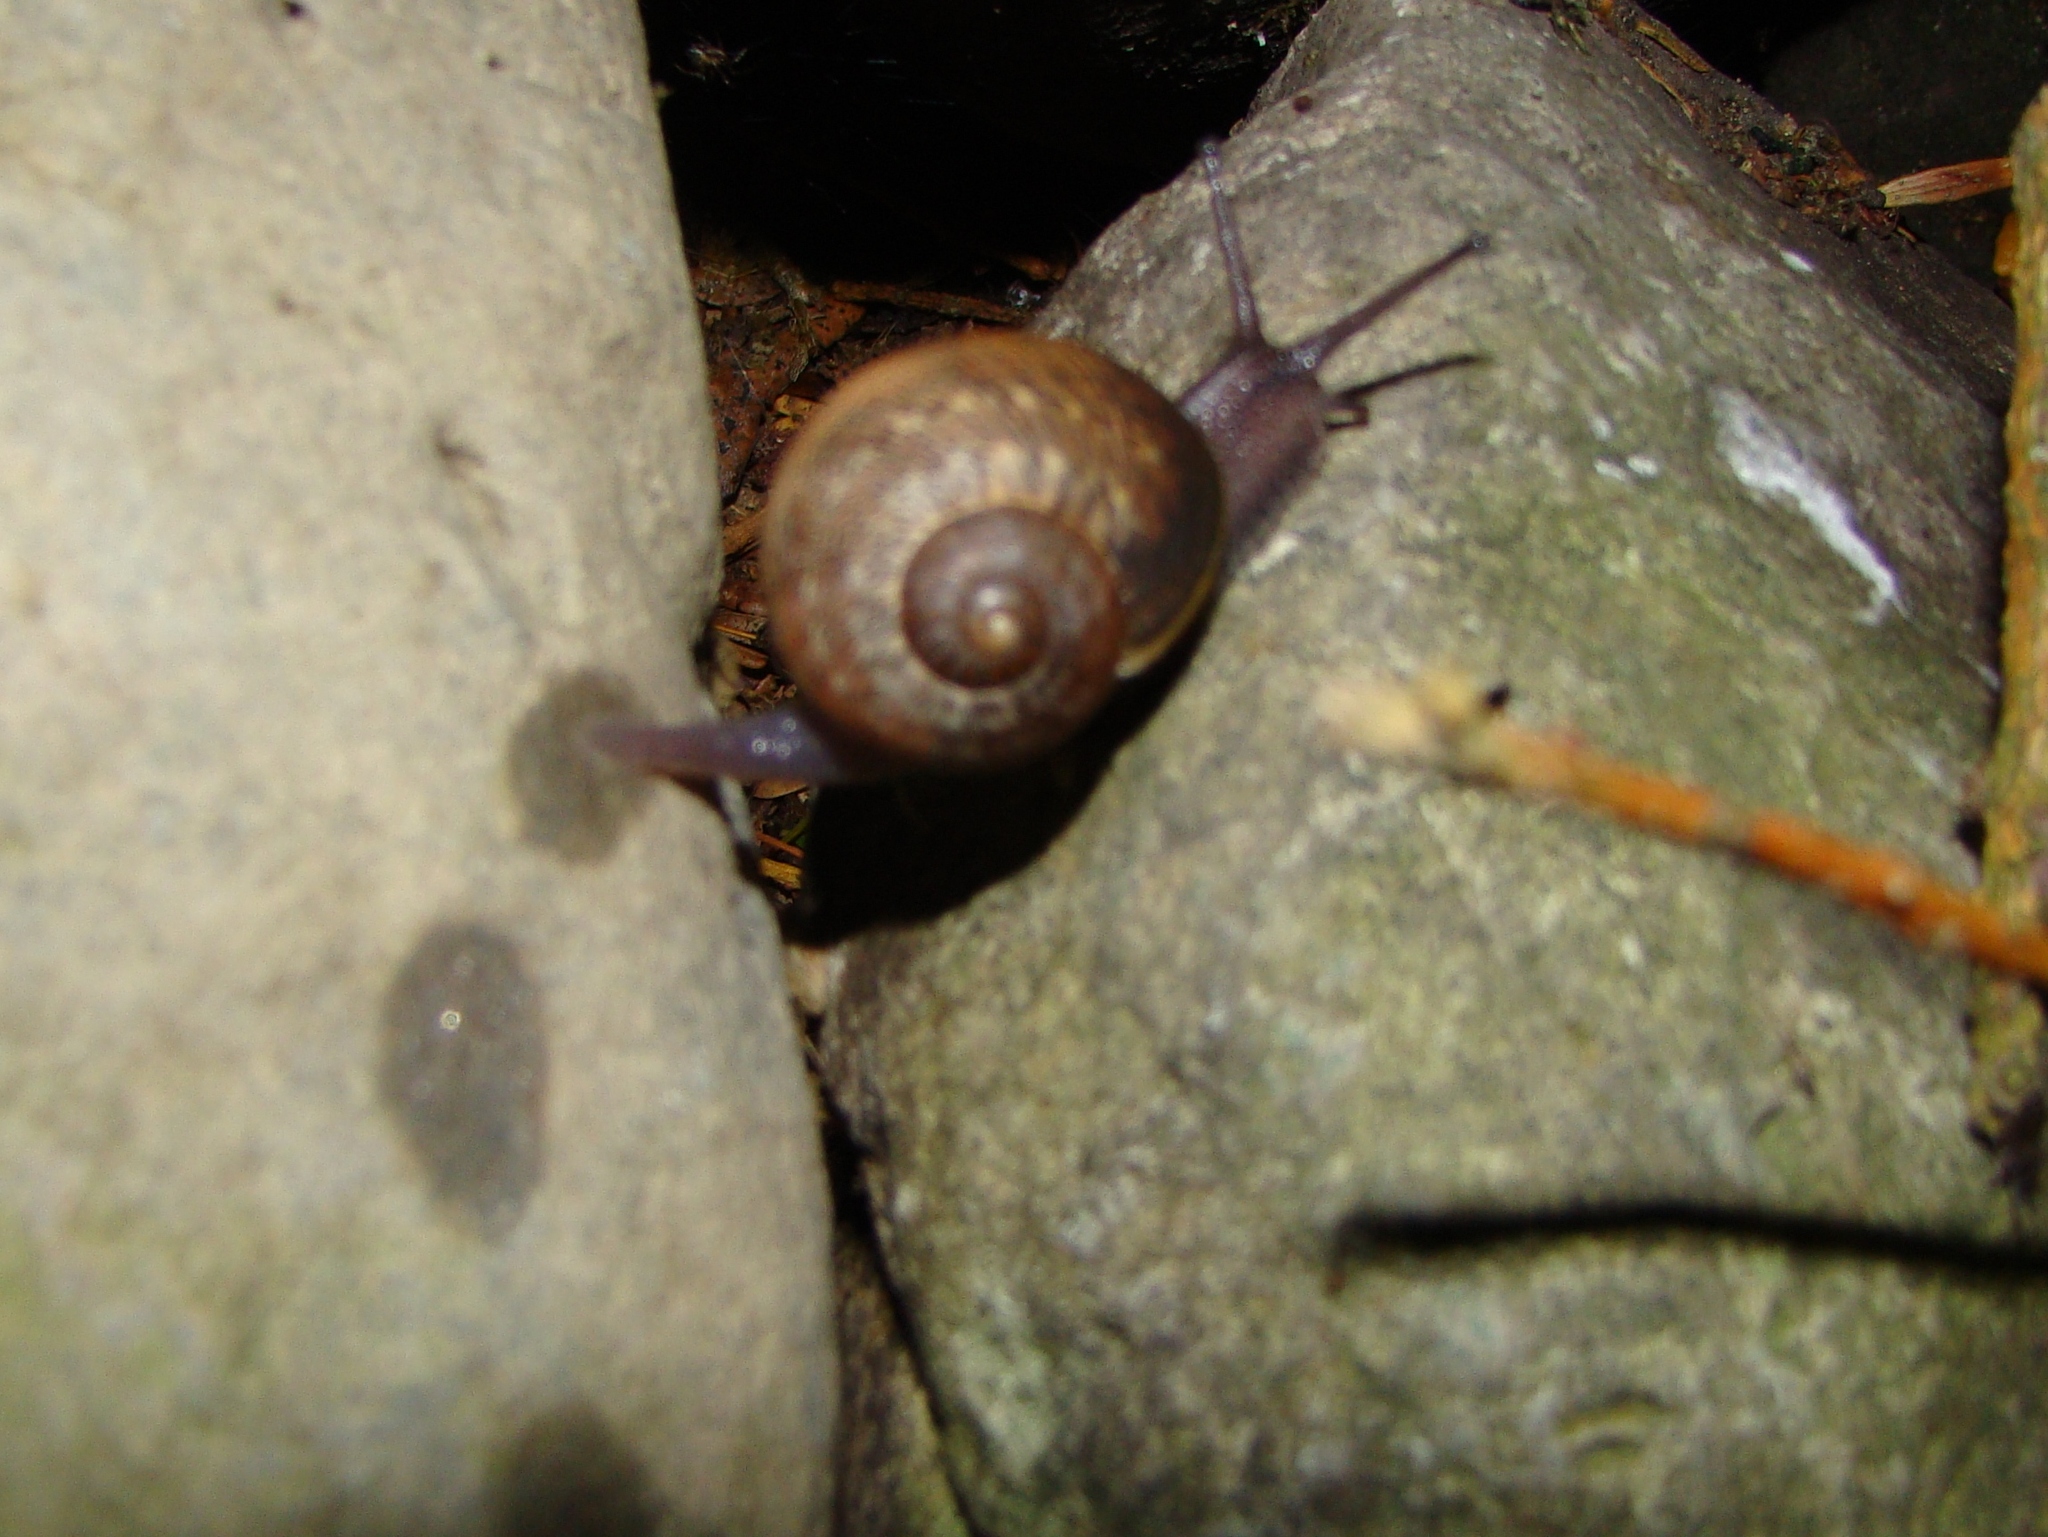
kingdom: Animalia
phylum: Mollusca
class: Gastropoda
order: Stylommatophora
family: Helicidae
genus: Cornu
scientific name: Cornu aspersum
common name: Brown garden snail
